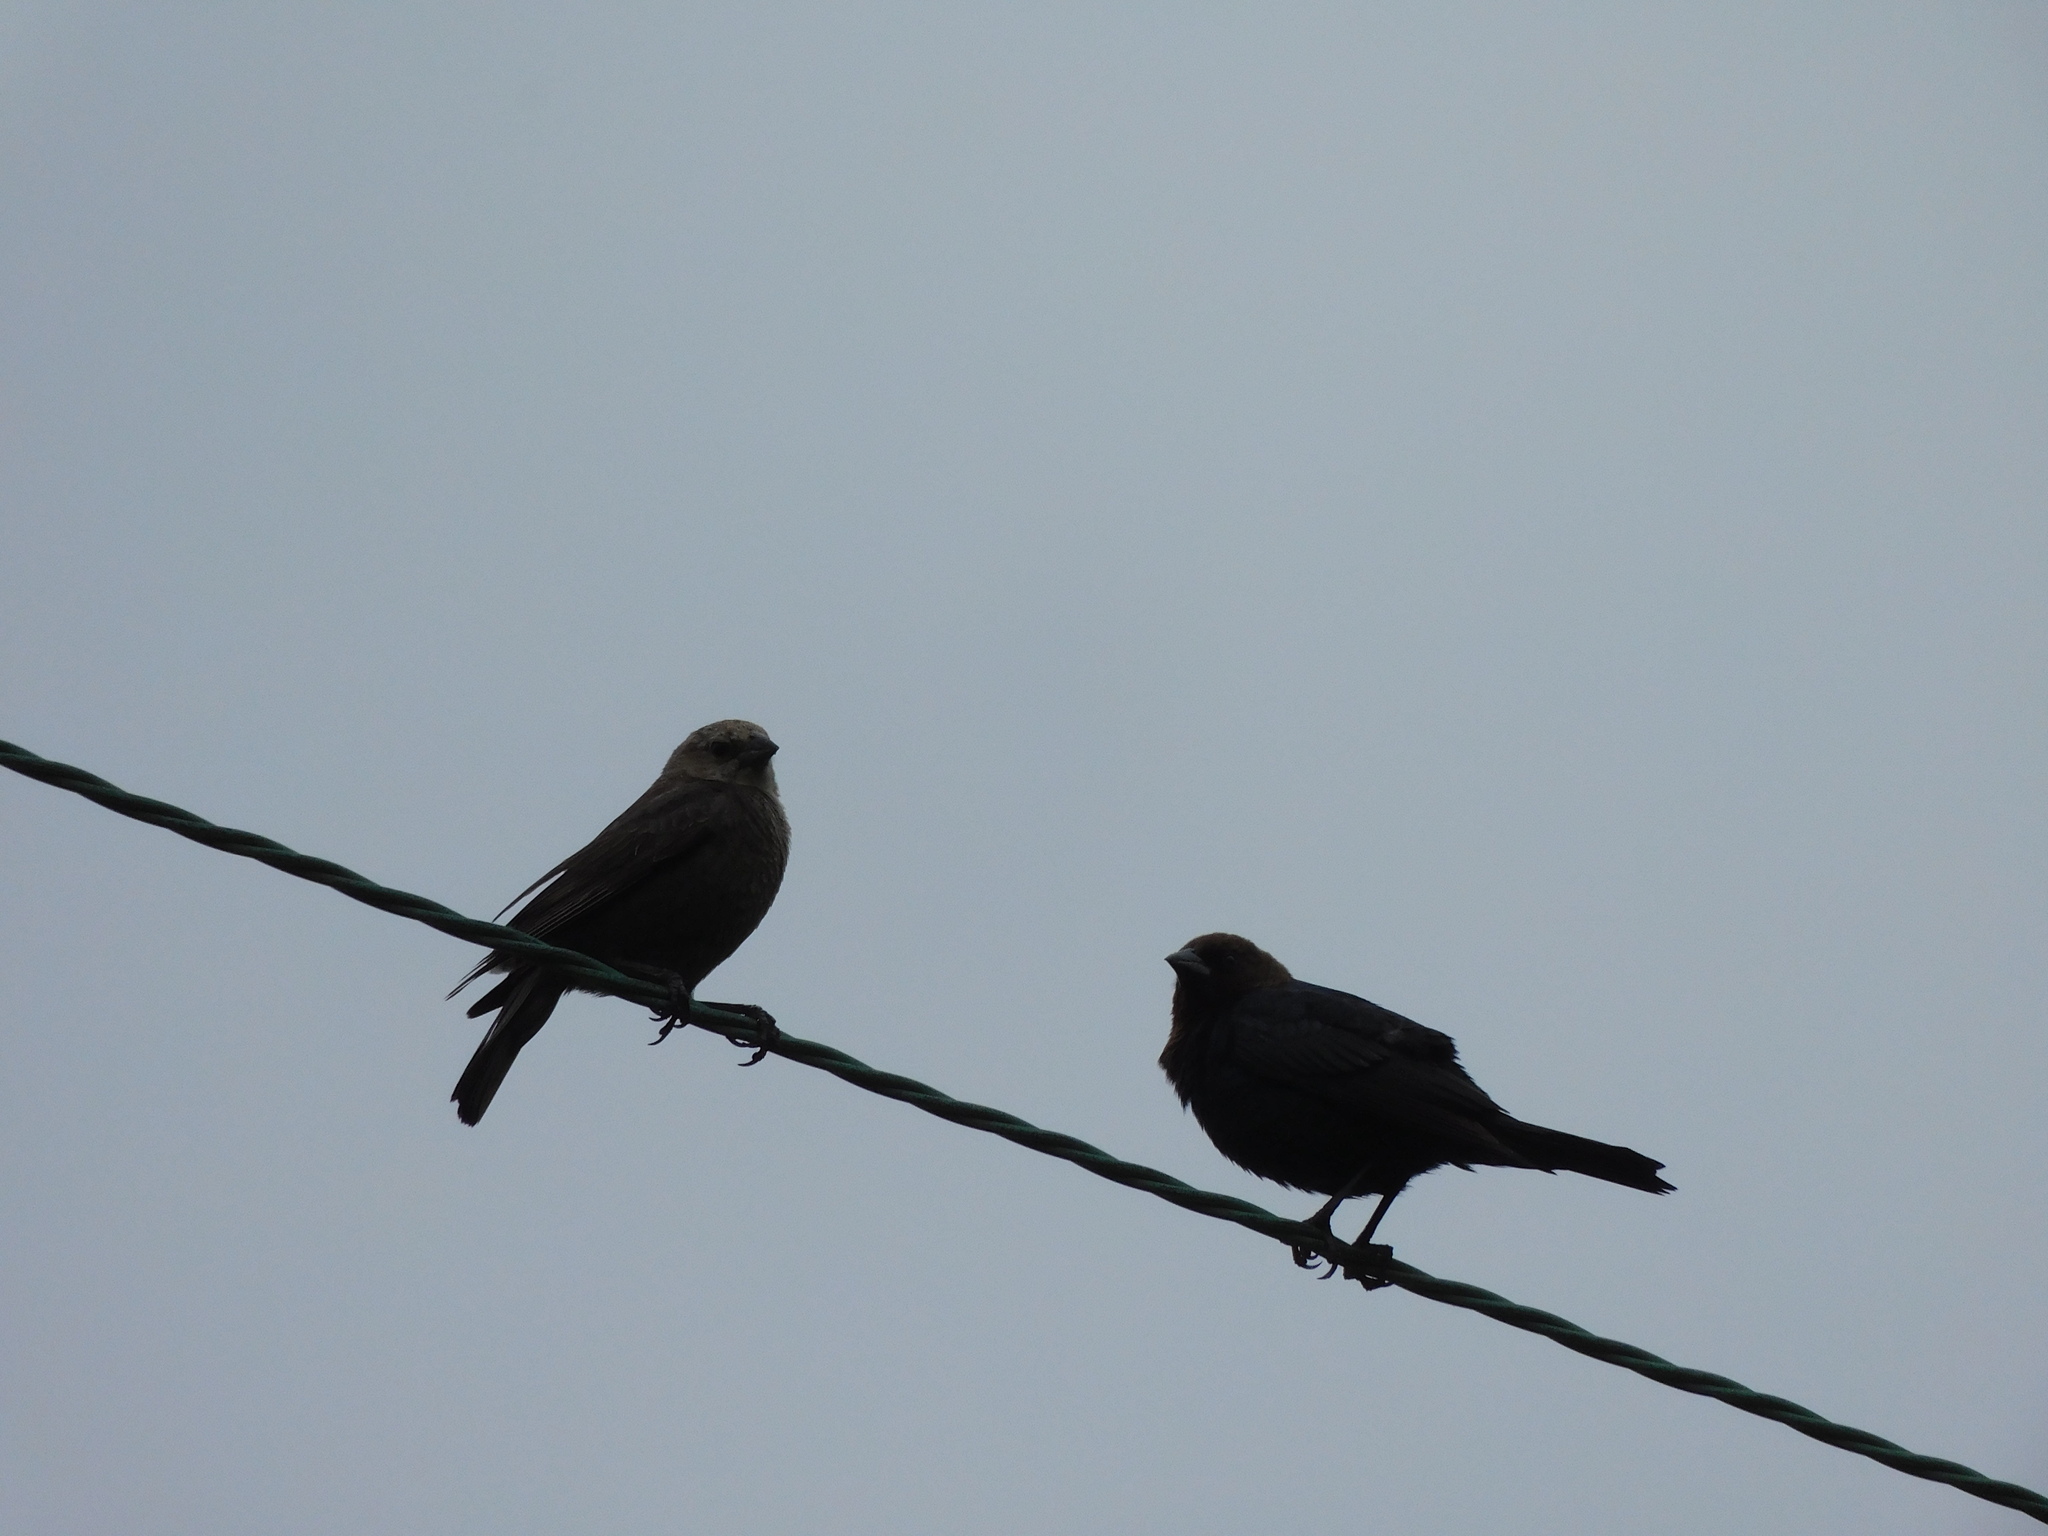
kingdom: Animalia
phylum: Chordata
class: Aves
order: Passeriformes
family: Icteridae
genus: Molothrus
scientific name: Molothrus ater
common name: Brown-headed cowbird
